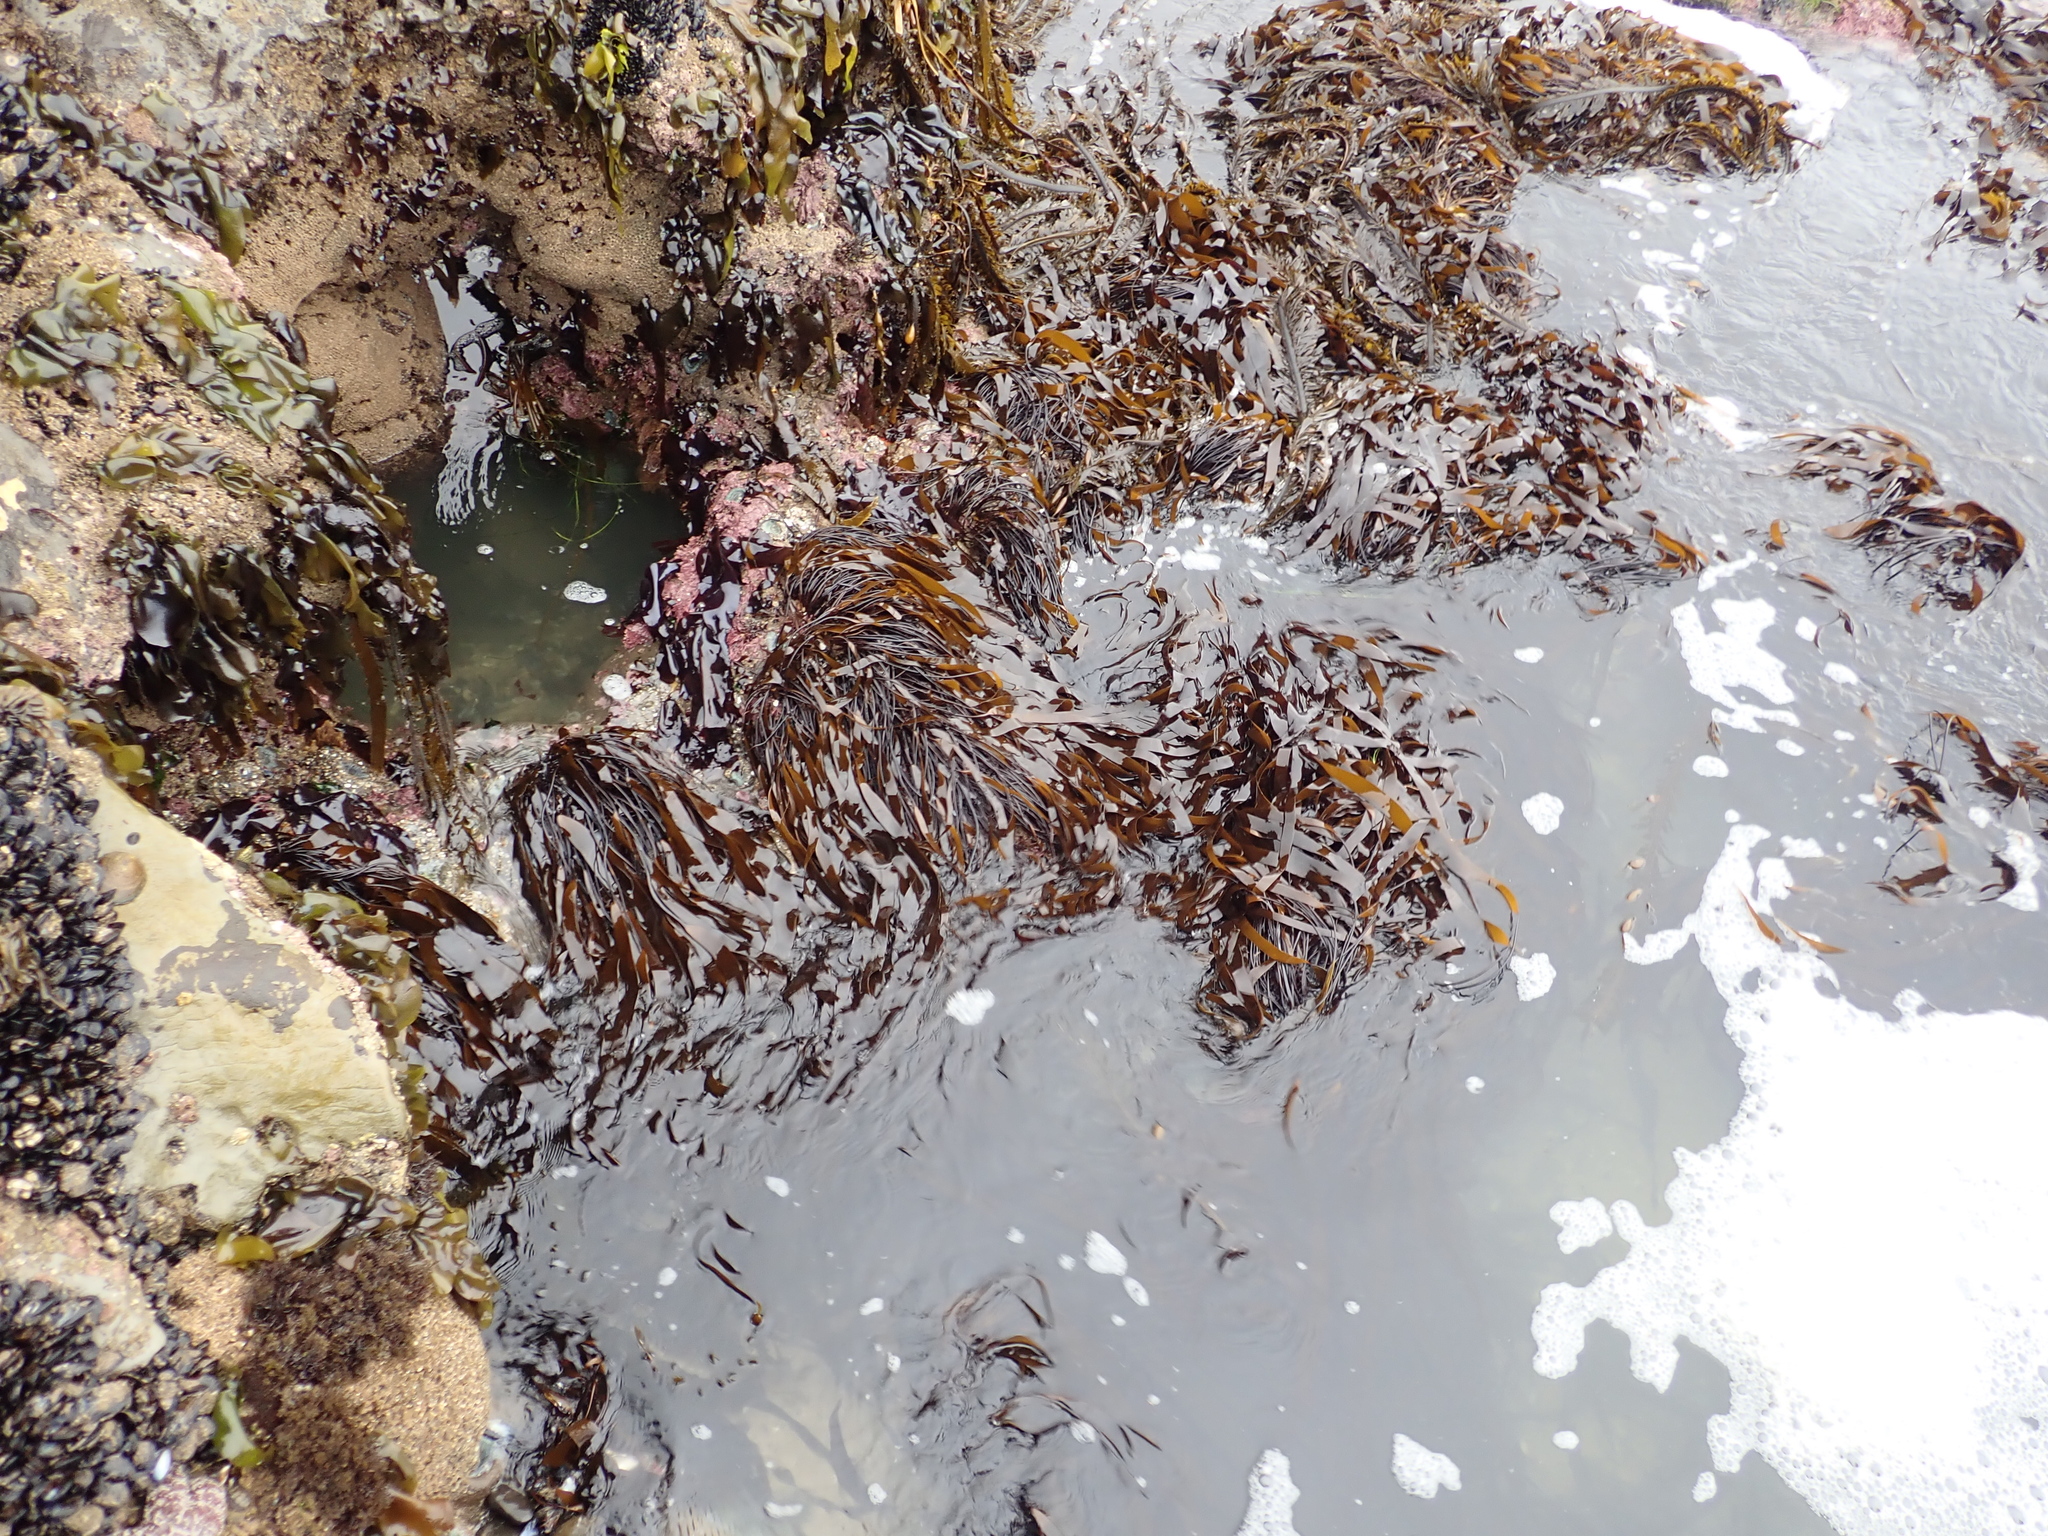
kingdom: Chromista
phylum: Ochrophyta
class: Phaeophyceae
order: Laminariales
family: Laminariaceae
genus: Laminaria
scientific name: Laminaria sinclairii
